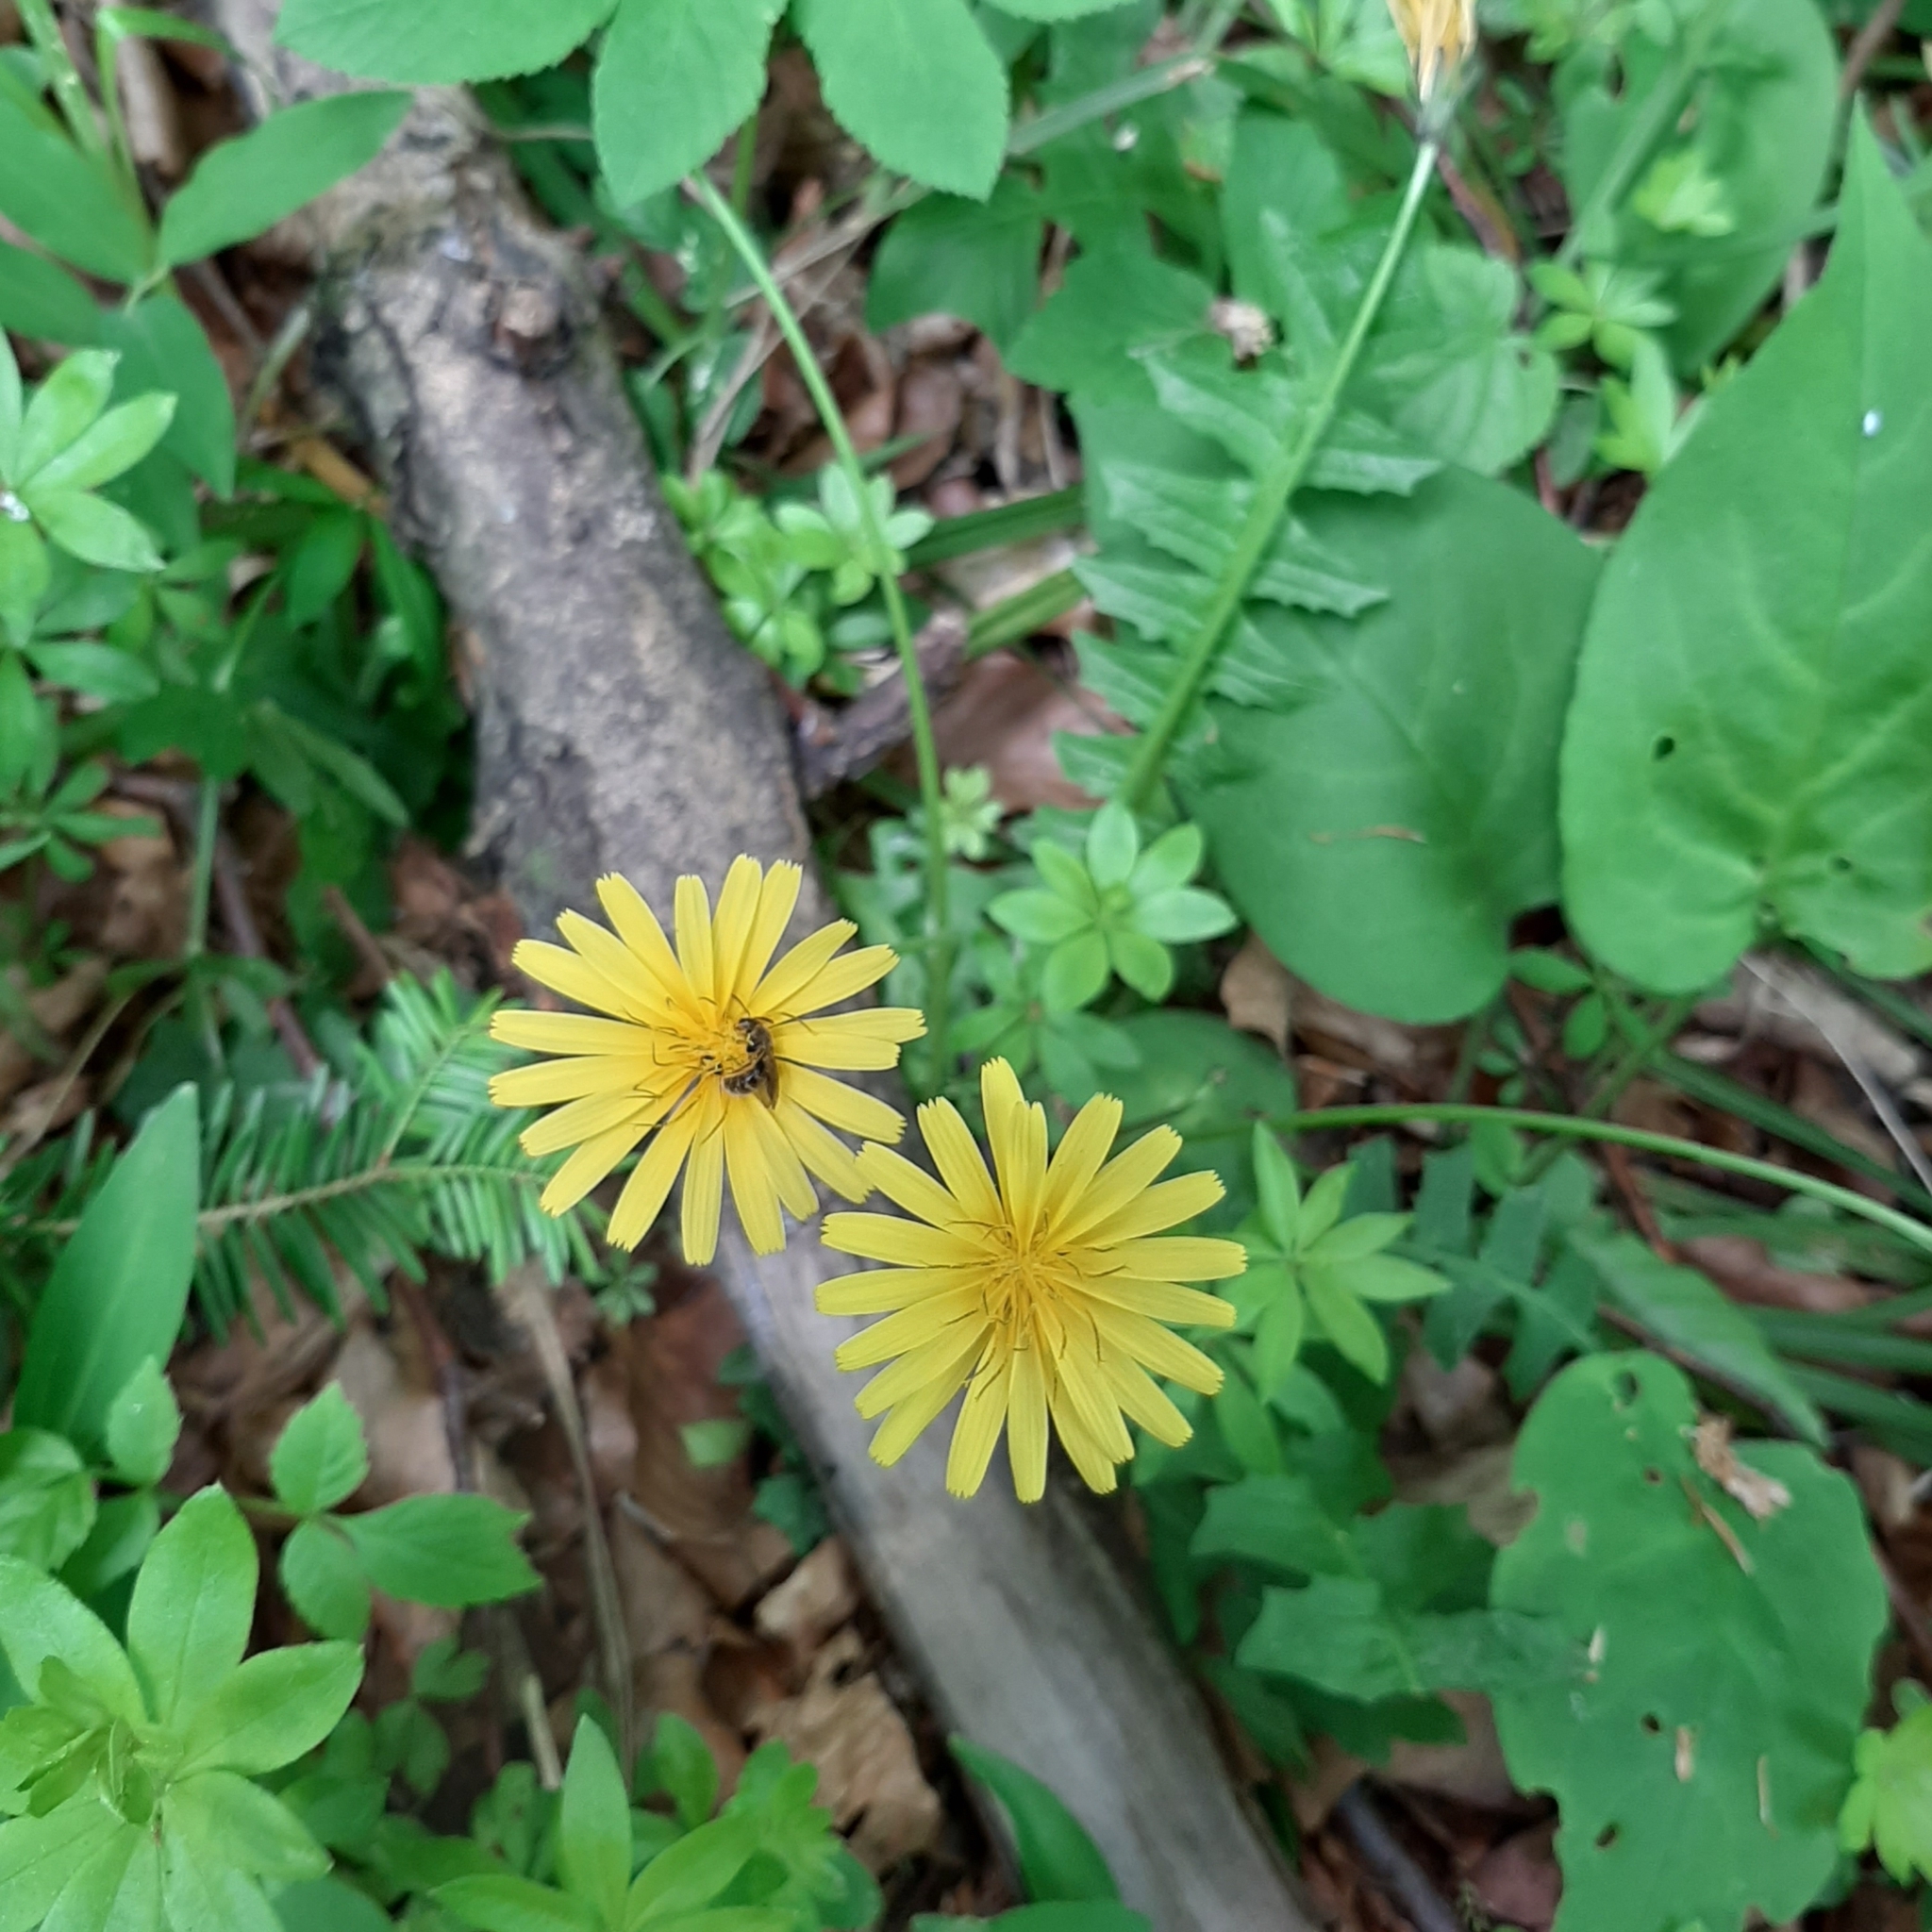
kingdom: Plantae
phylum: Tracheophyta
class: Magnoliopsida
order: Asterales
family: Asteraceae
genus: Aposeris
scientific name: Aposeris foetida
